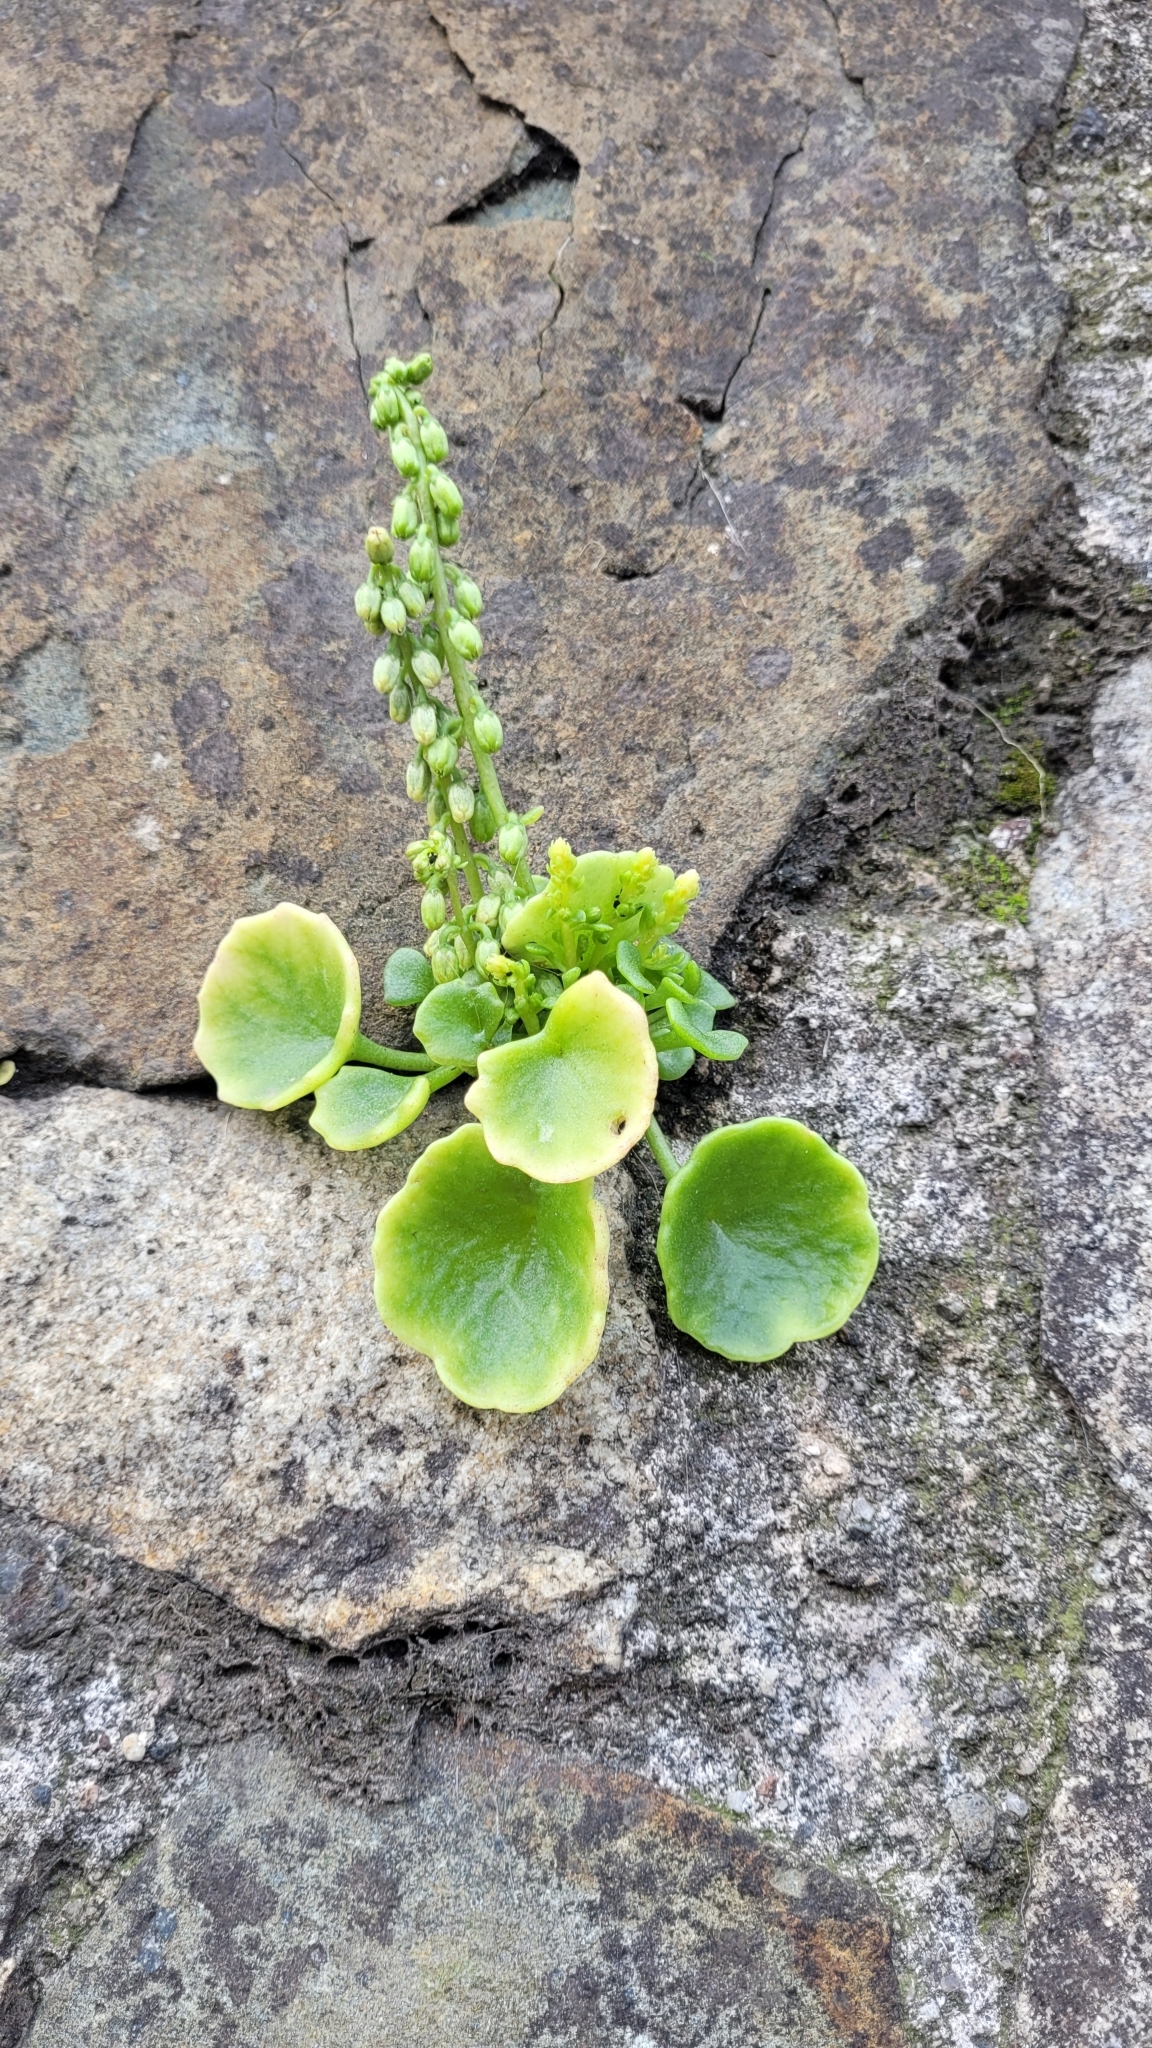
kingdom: Plantae
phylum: Tracheophyta
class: Magnoliopsida
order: Saxifragales
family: Crassulaceae
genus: Umbilicus
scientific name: Umbilicus rupestris
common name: Navelwort
